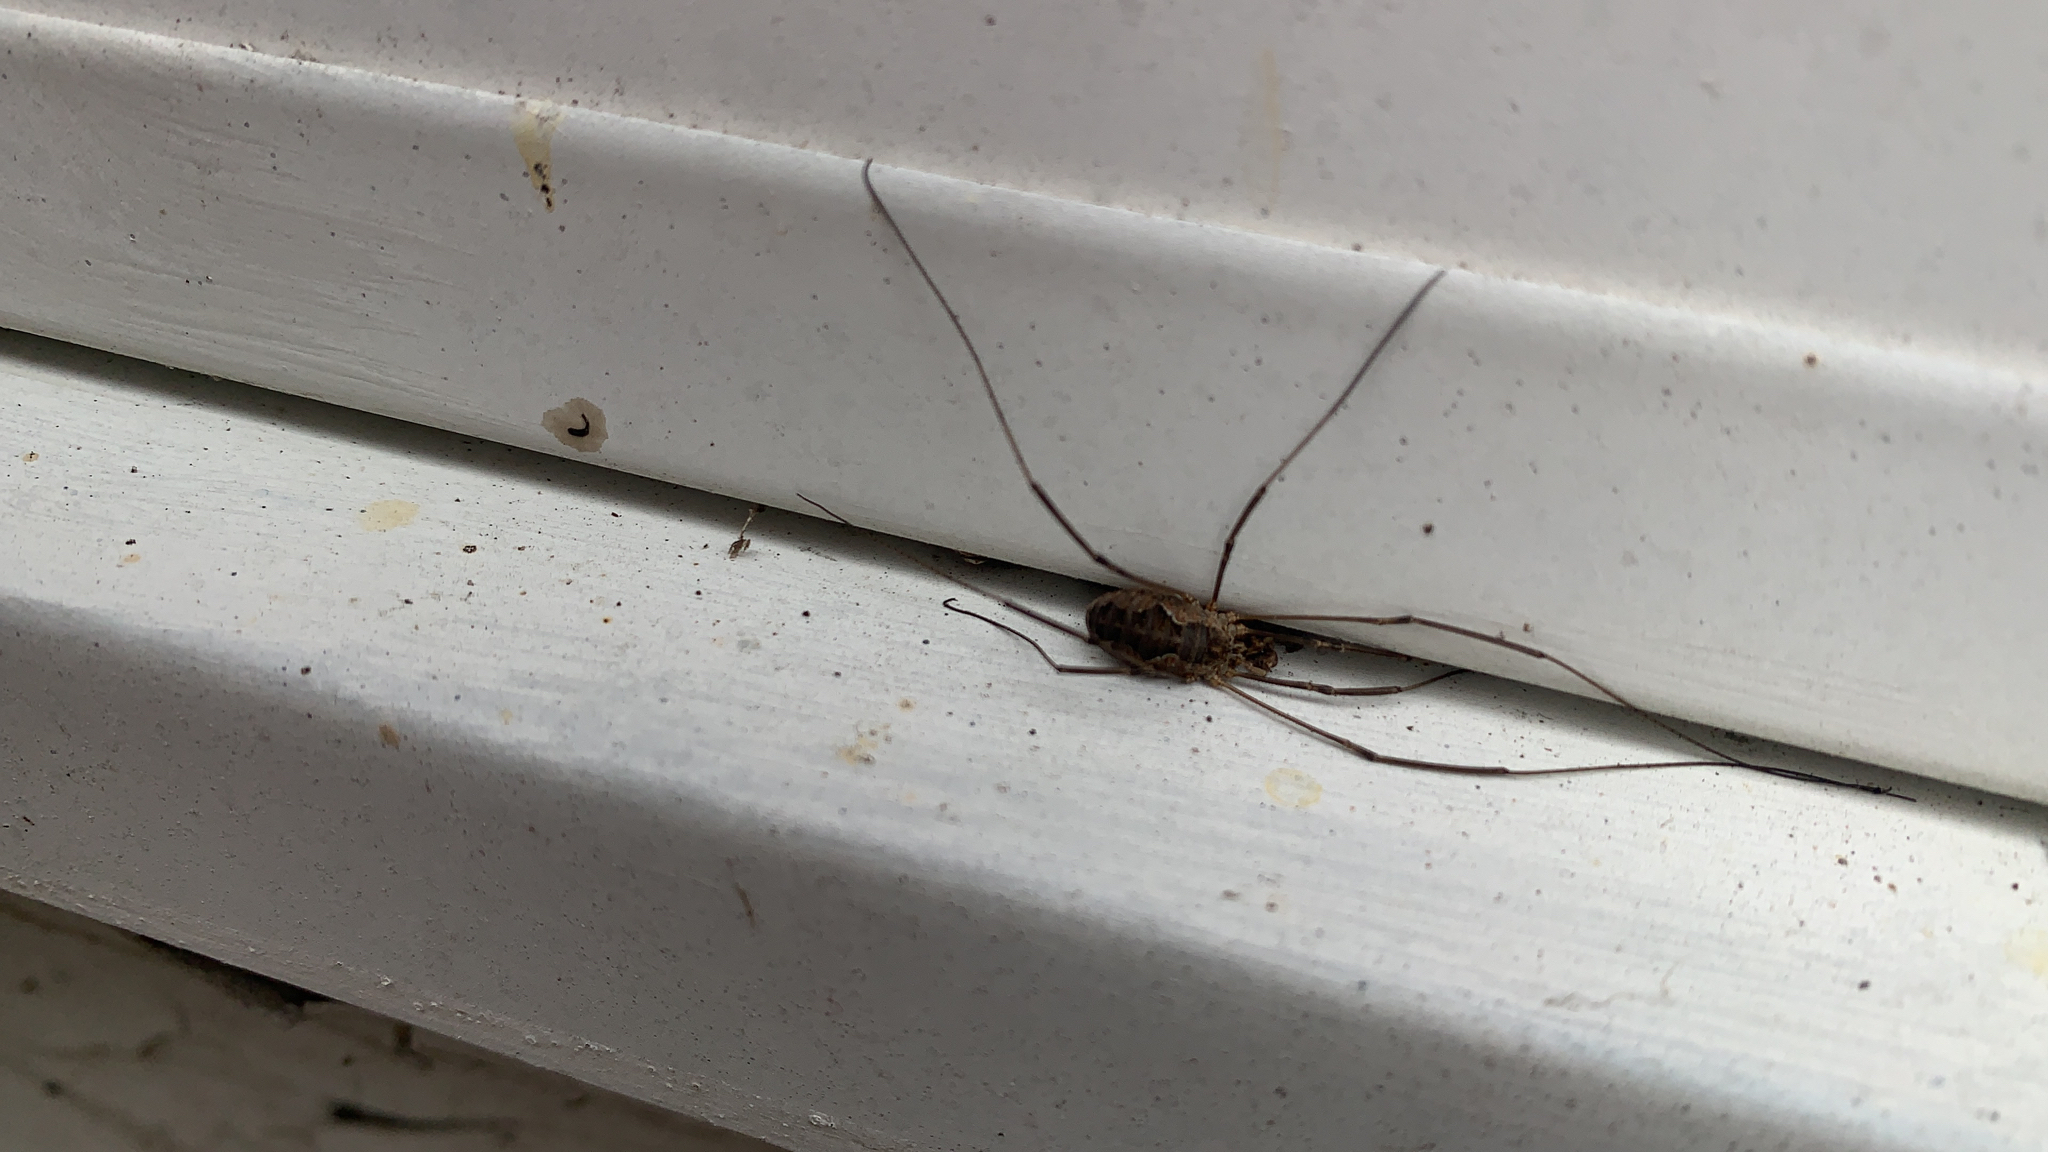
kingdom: Animalia
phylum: Arthropoda
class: Arachnida
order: Opiliones
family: Phalangiidae
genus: Phalangium
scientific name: Phalangium opilio
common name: Daddy longleg
